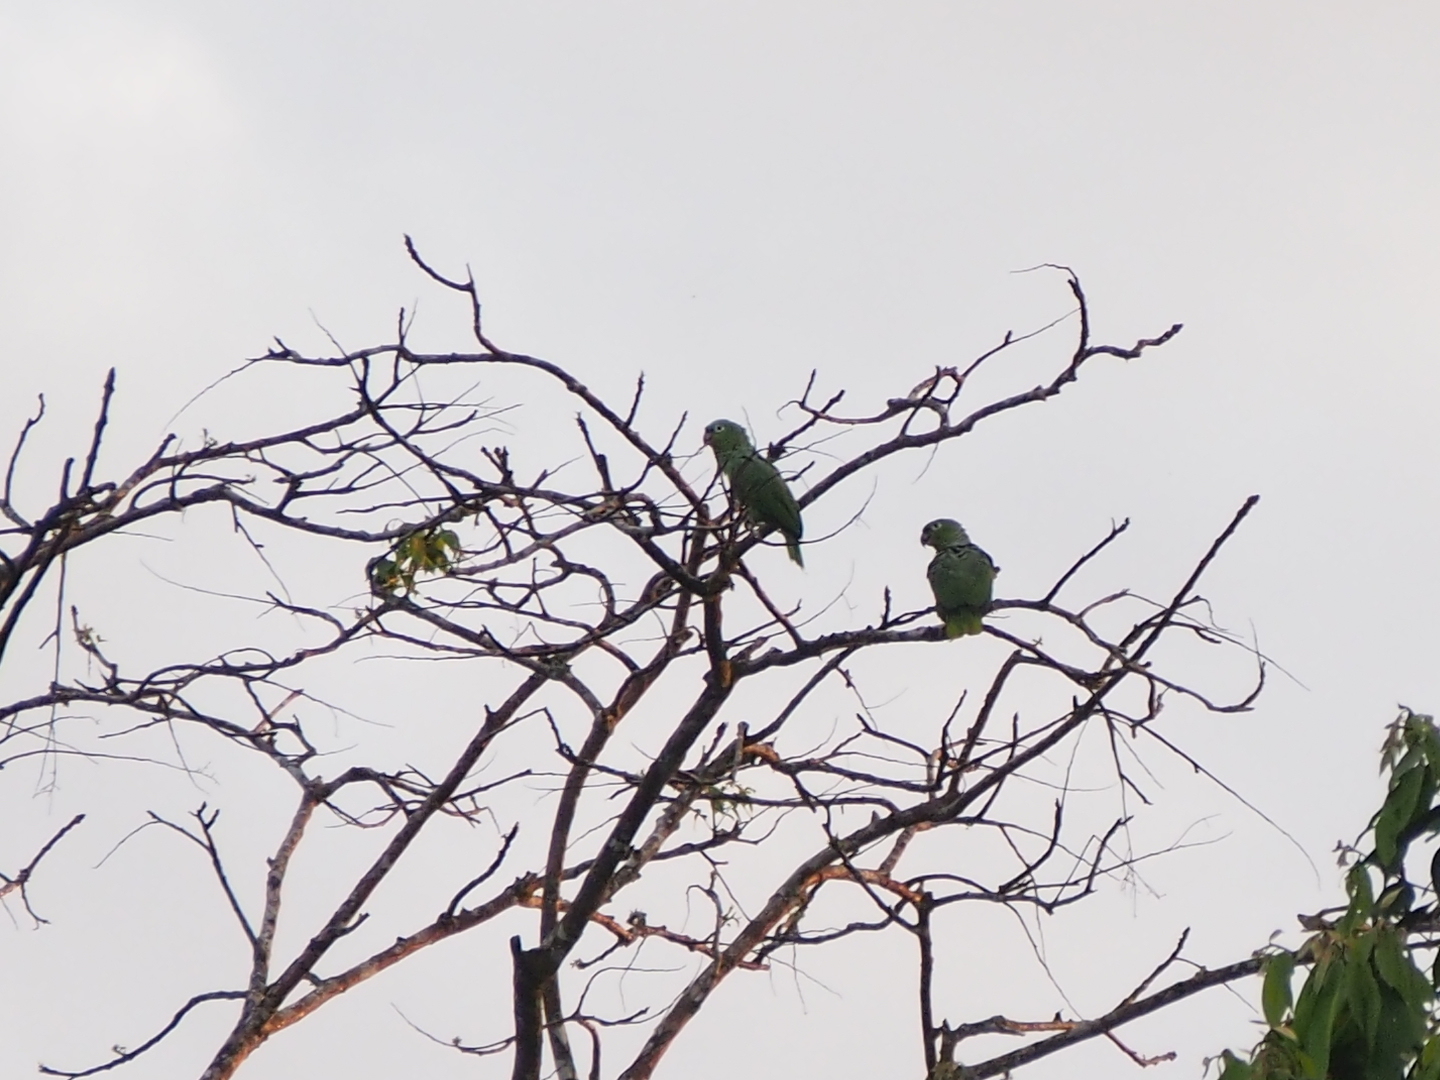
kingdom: Animalia
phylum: Chordata
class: Aves
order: Psittaciformes
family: Psittacidae
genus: Amazona
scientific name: Amazona farinosa
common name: Mealy parrot
